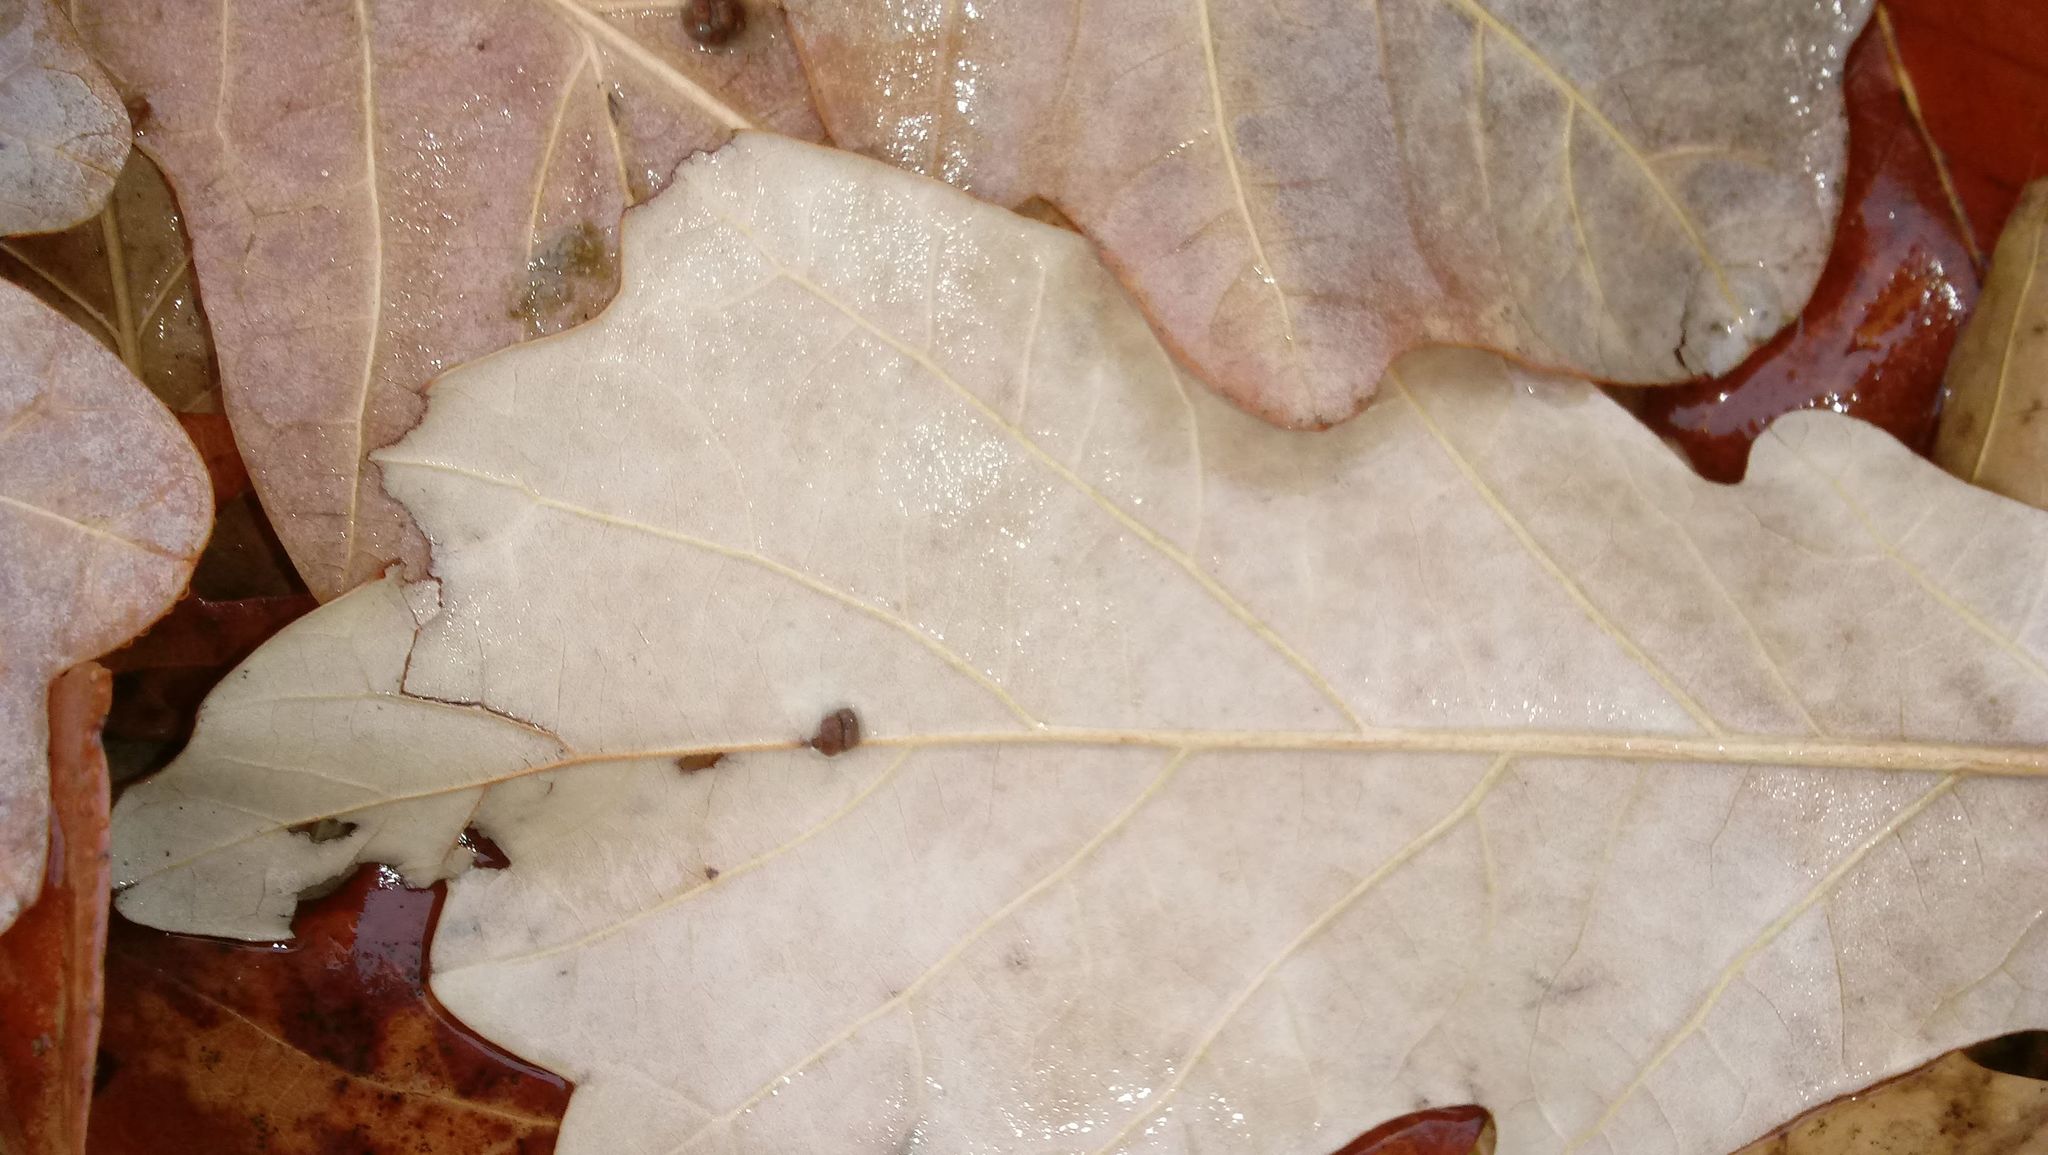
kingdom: Animalia
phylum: Arthropoda
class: Insecta
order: Hymenoptera
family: Cynipidae
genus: Andricus
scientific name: Andricus Druon ignotum
